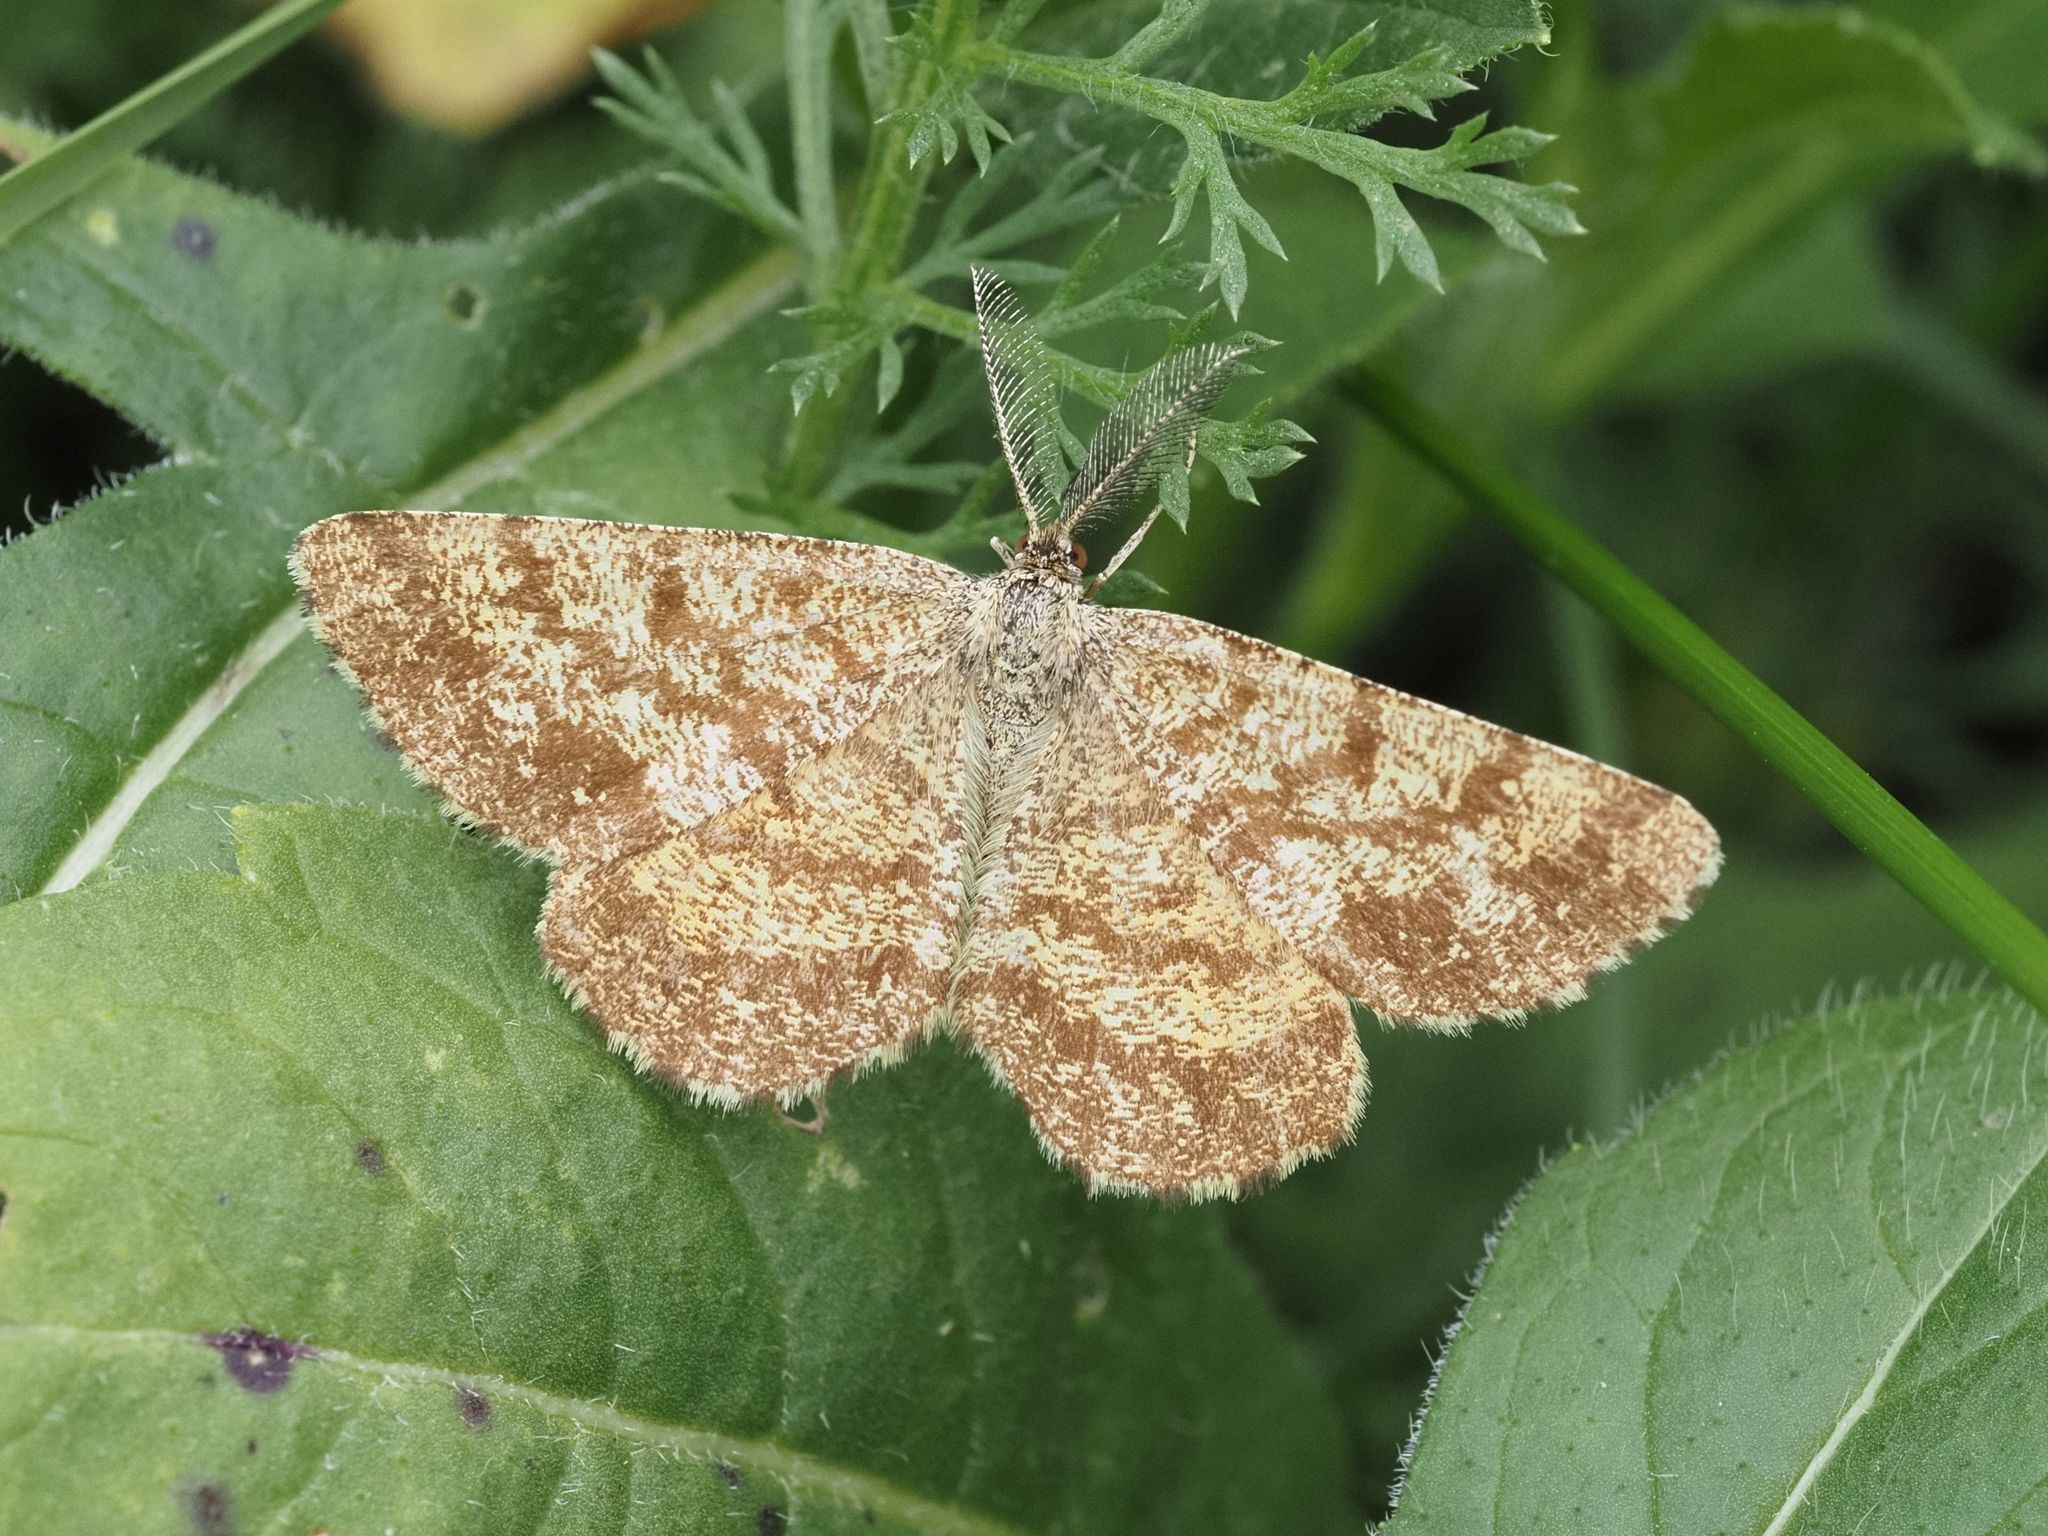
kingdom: Animalia
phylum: Arthropoda
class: Insecta
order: Lepidoptera
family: Geometridae
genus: Ematurga
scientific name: Ematurga atomaria
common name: Common heath
